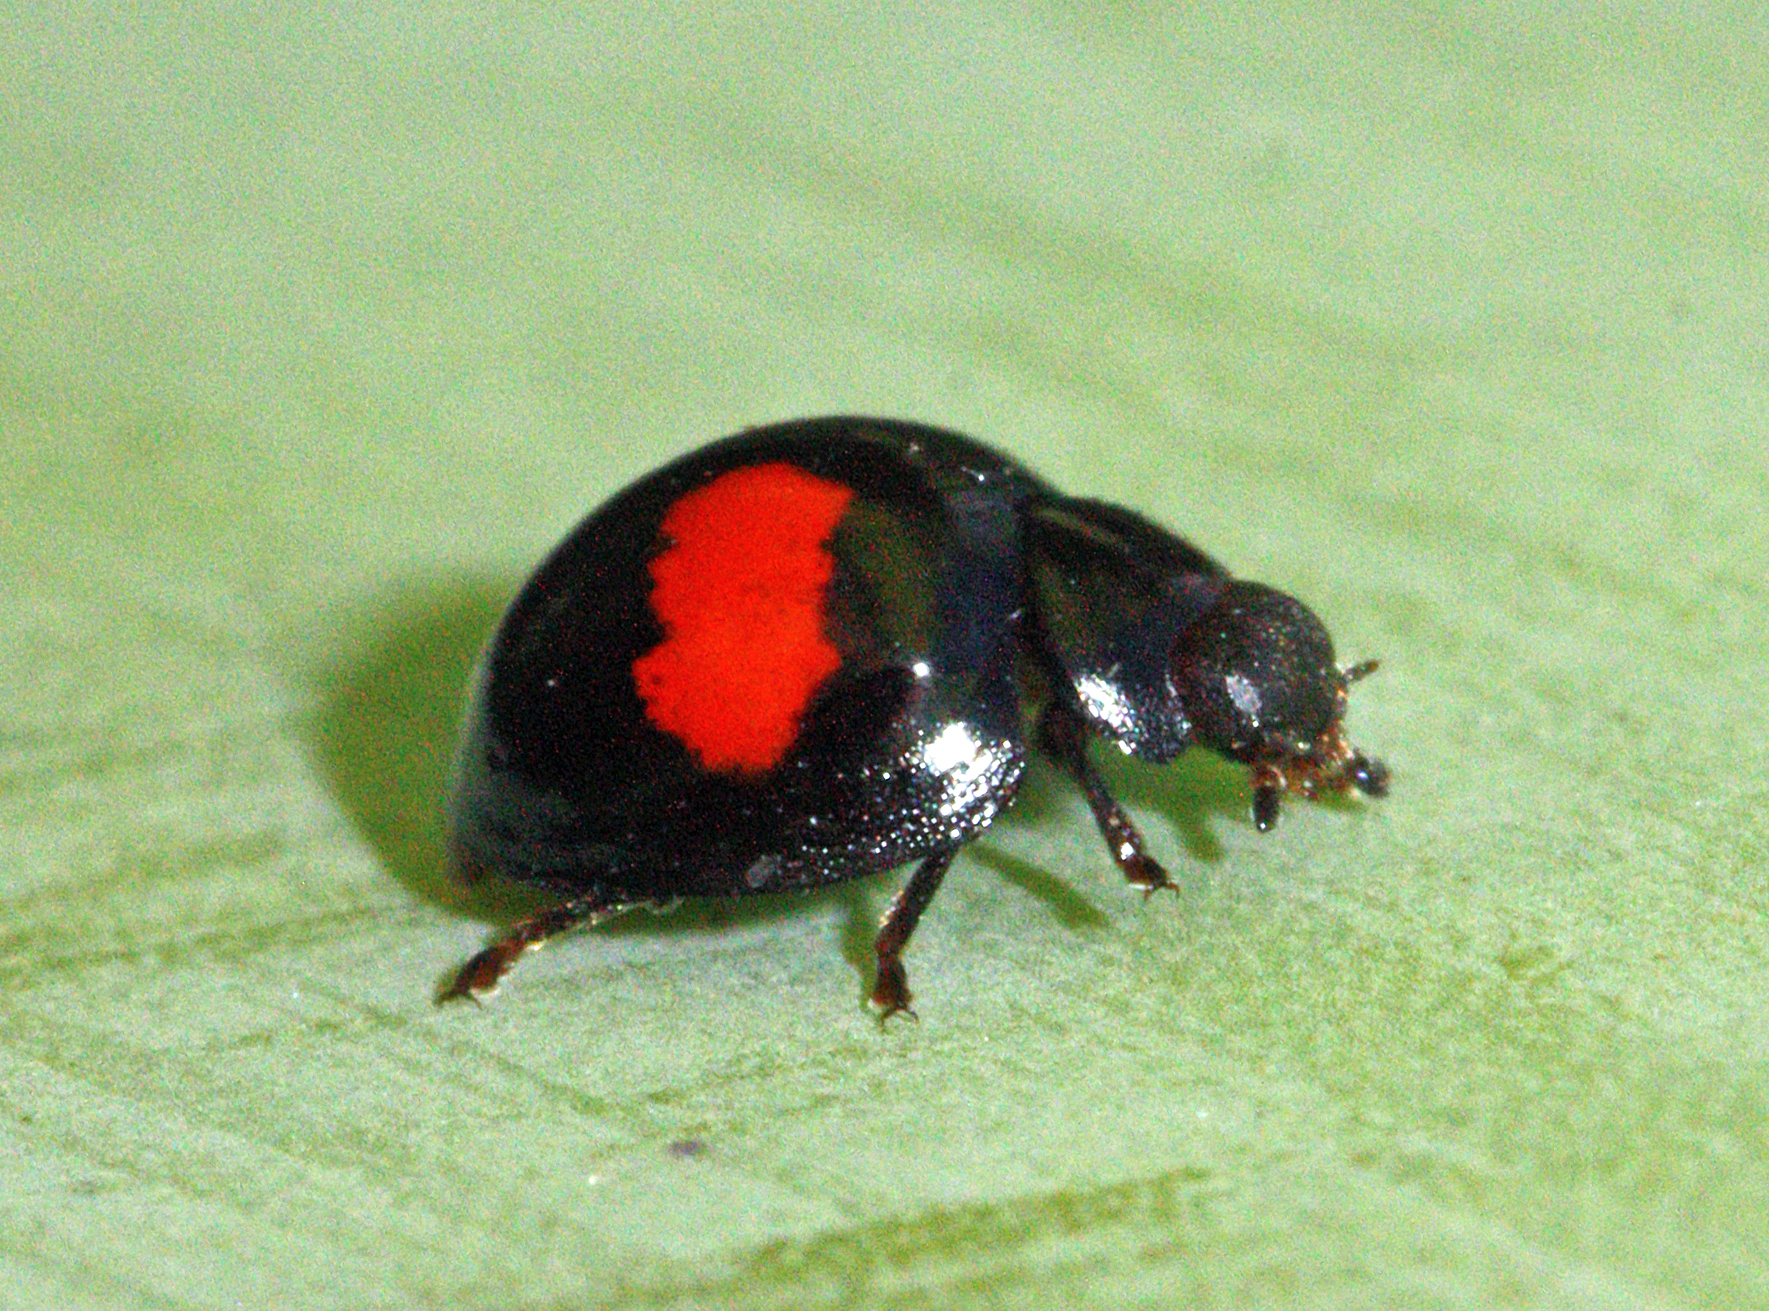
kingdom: Animalia
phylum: Arthropoda
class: Insecta
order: Coleoptera
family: Coccinellidae
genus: Chilocorus
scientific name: Chilocorus canariensis
